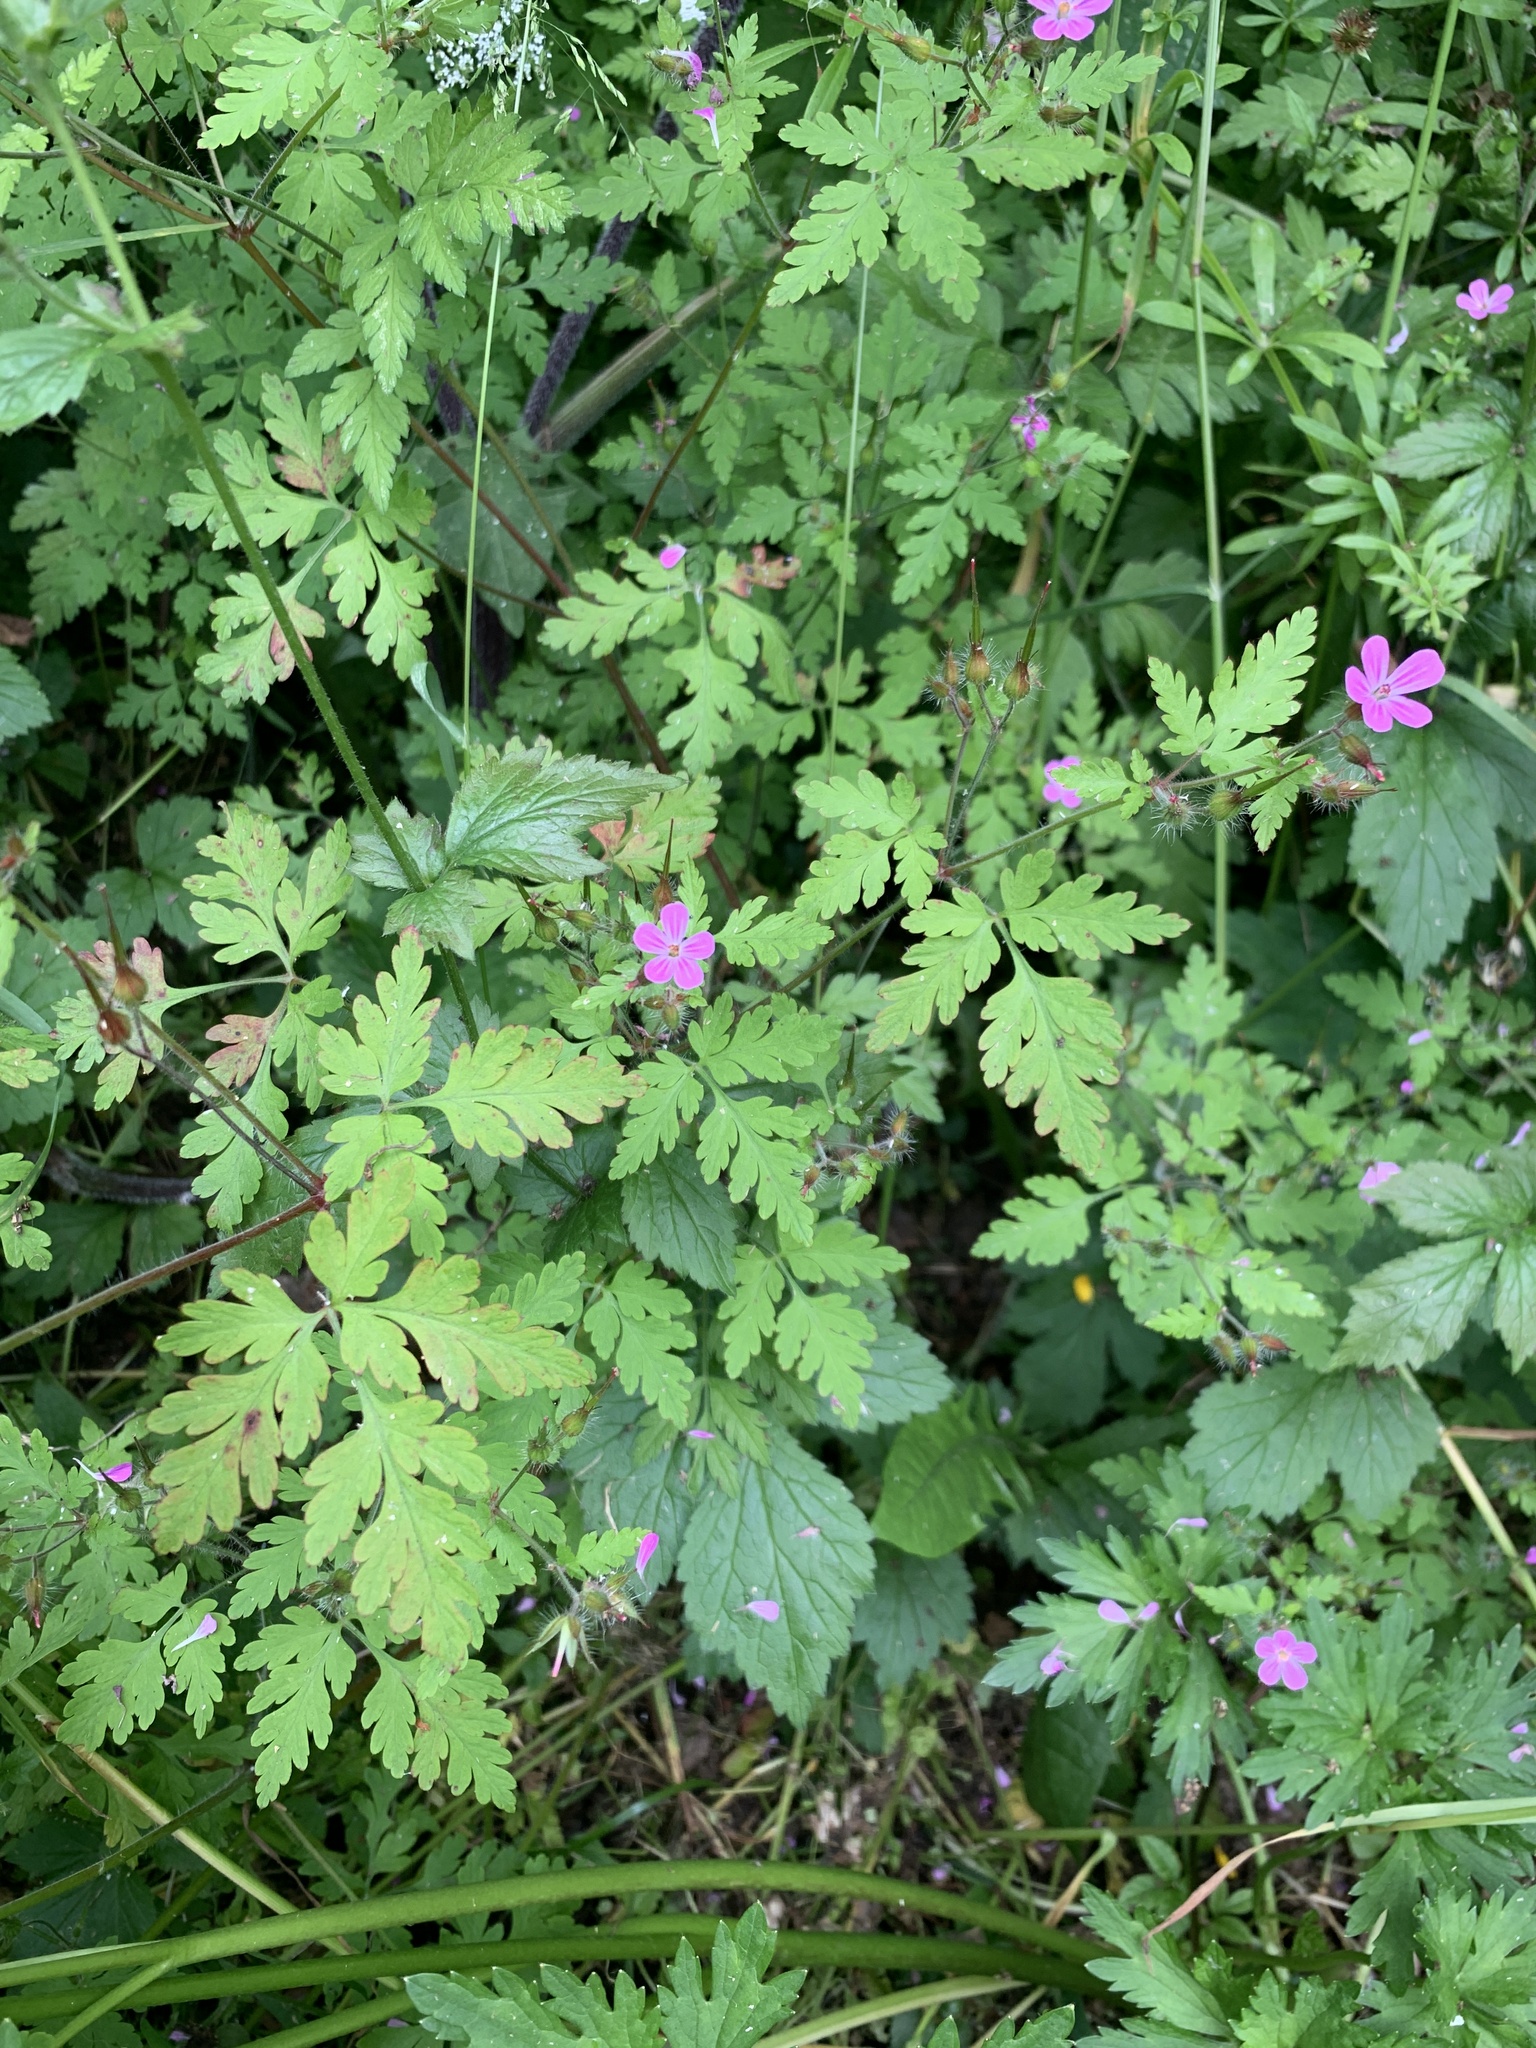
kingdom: Plantae
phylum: Tracheophyta
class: Magnoliopsida
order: Geraniales
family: Geraniaceae
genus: Geranium
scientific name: Geranium robertianum
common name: Herb-robert
